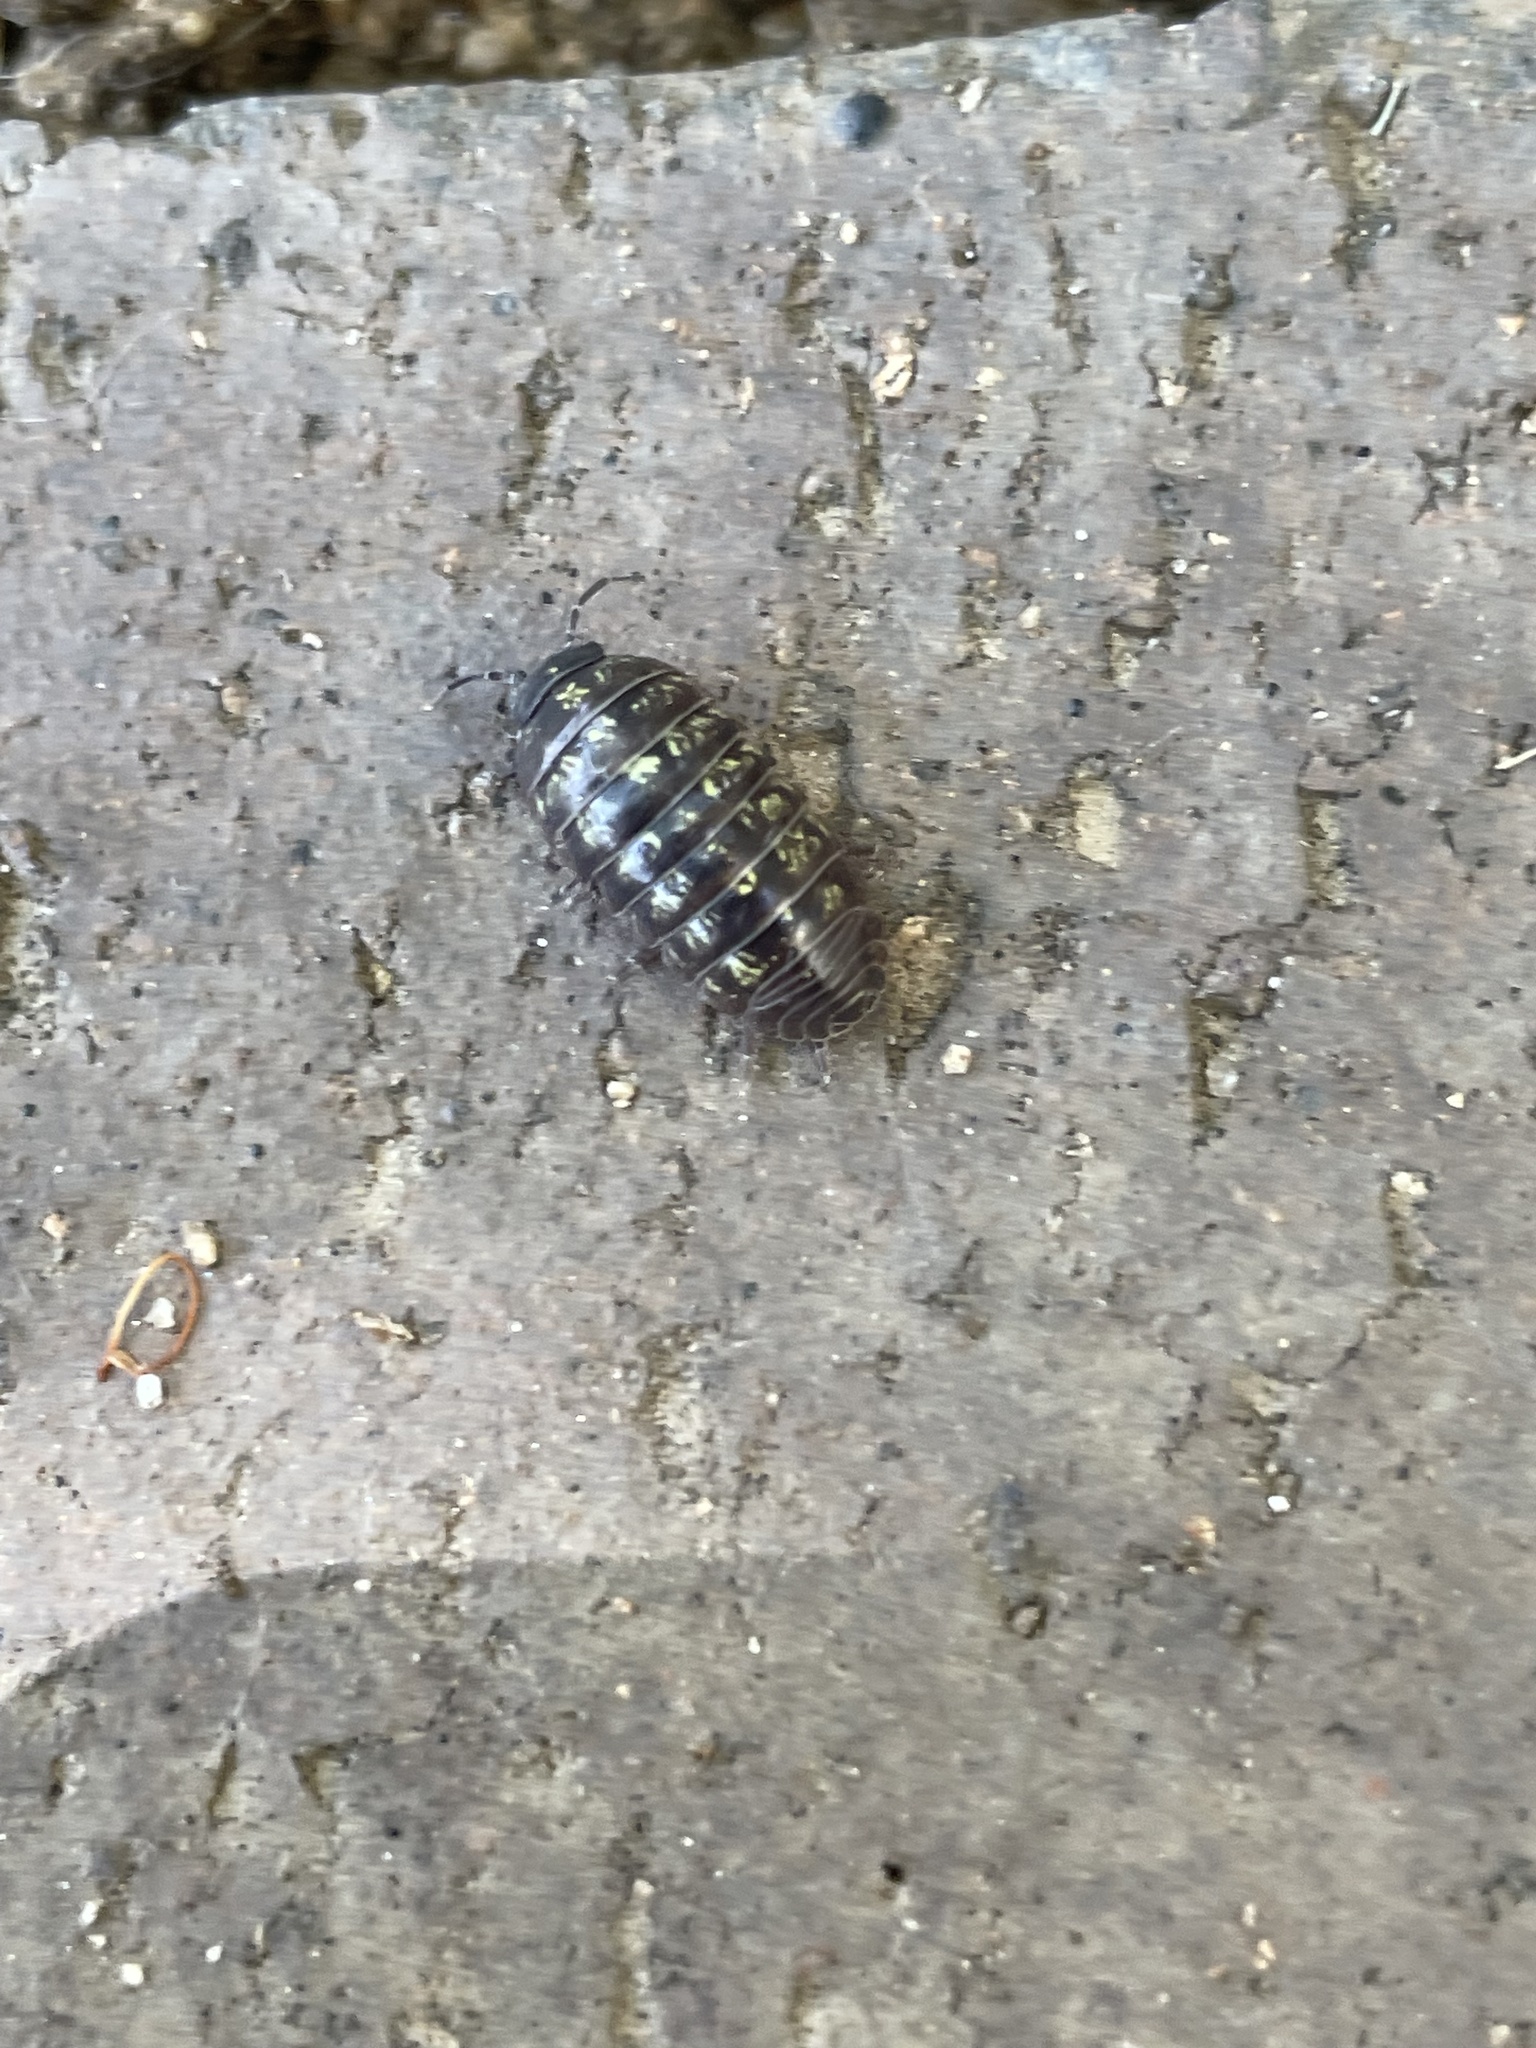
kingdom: Animalia
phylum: Arthropoda
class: Malacostraca
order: Isopoda
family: Armadillidiidae
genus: Armadillidium
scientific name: Armadillidium vulgare
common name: Common pill woodlouse
